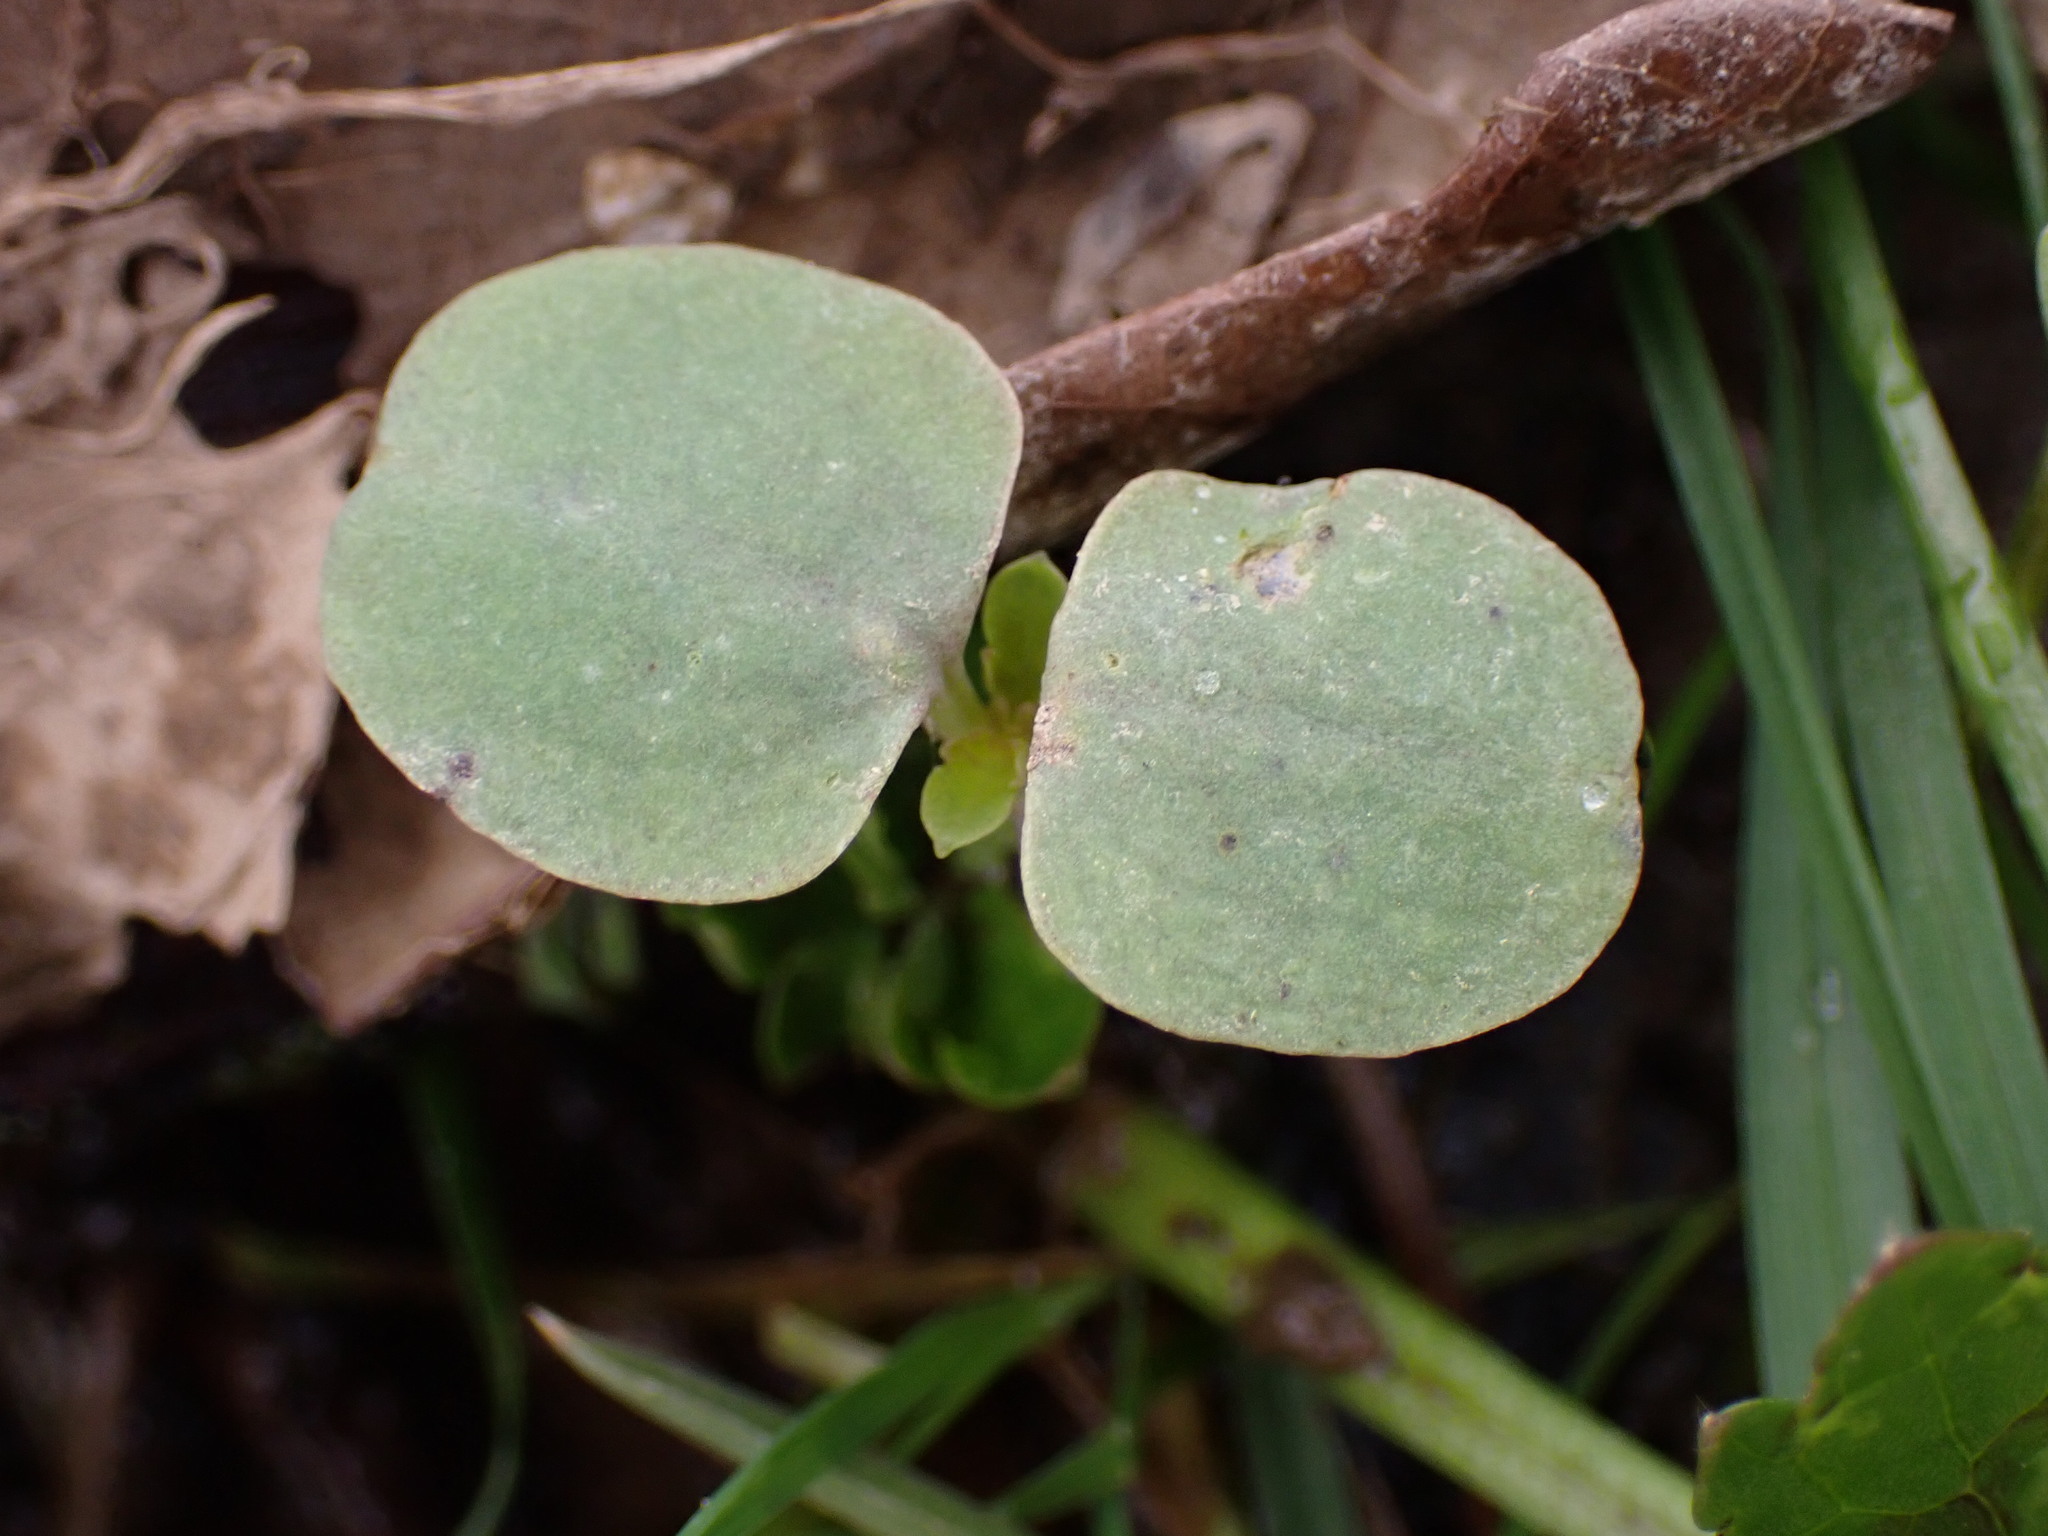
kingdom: Plantae
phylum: Tracheophyta
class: Magnoliopsida
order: Ericales
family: Balsaminaceae
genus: Impatiens
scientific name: Impatiens
